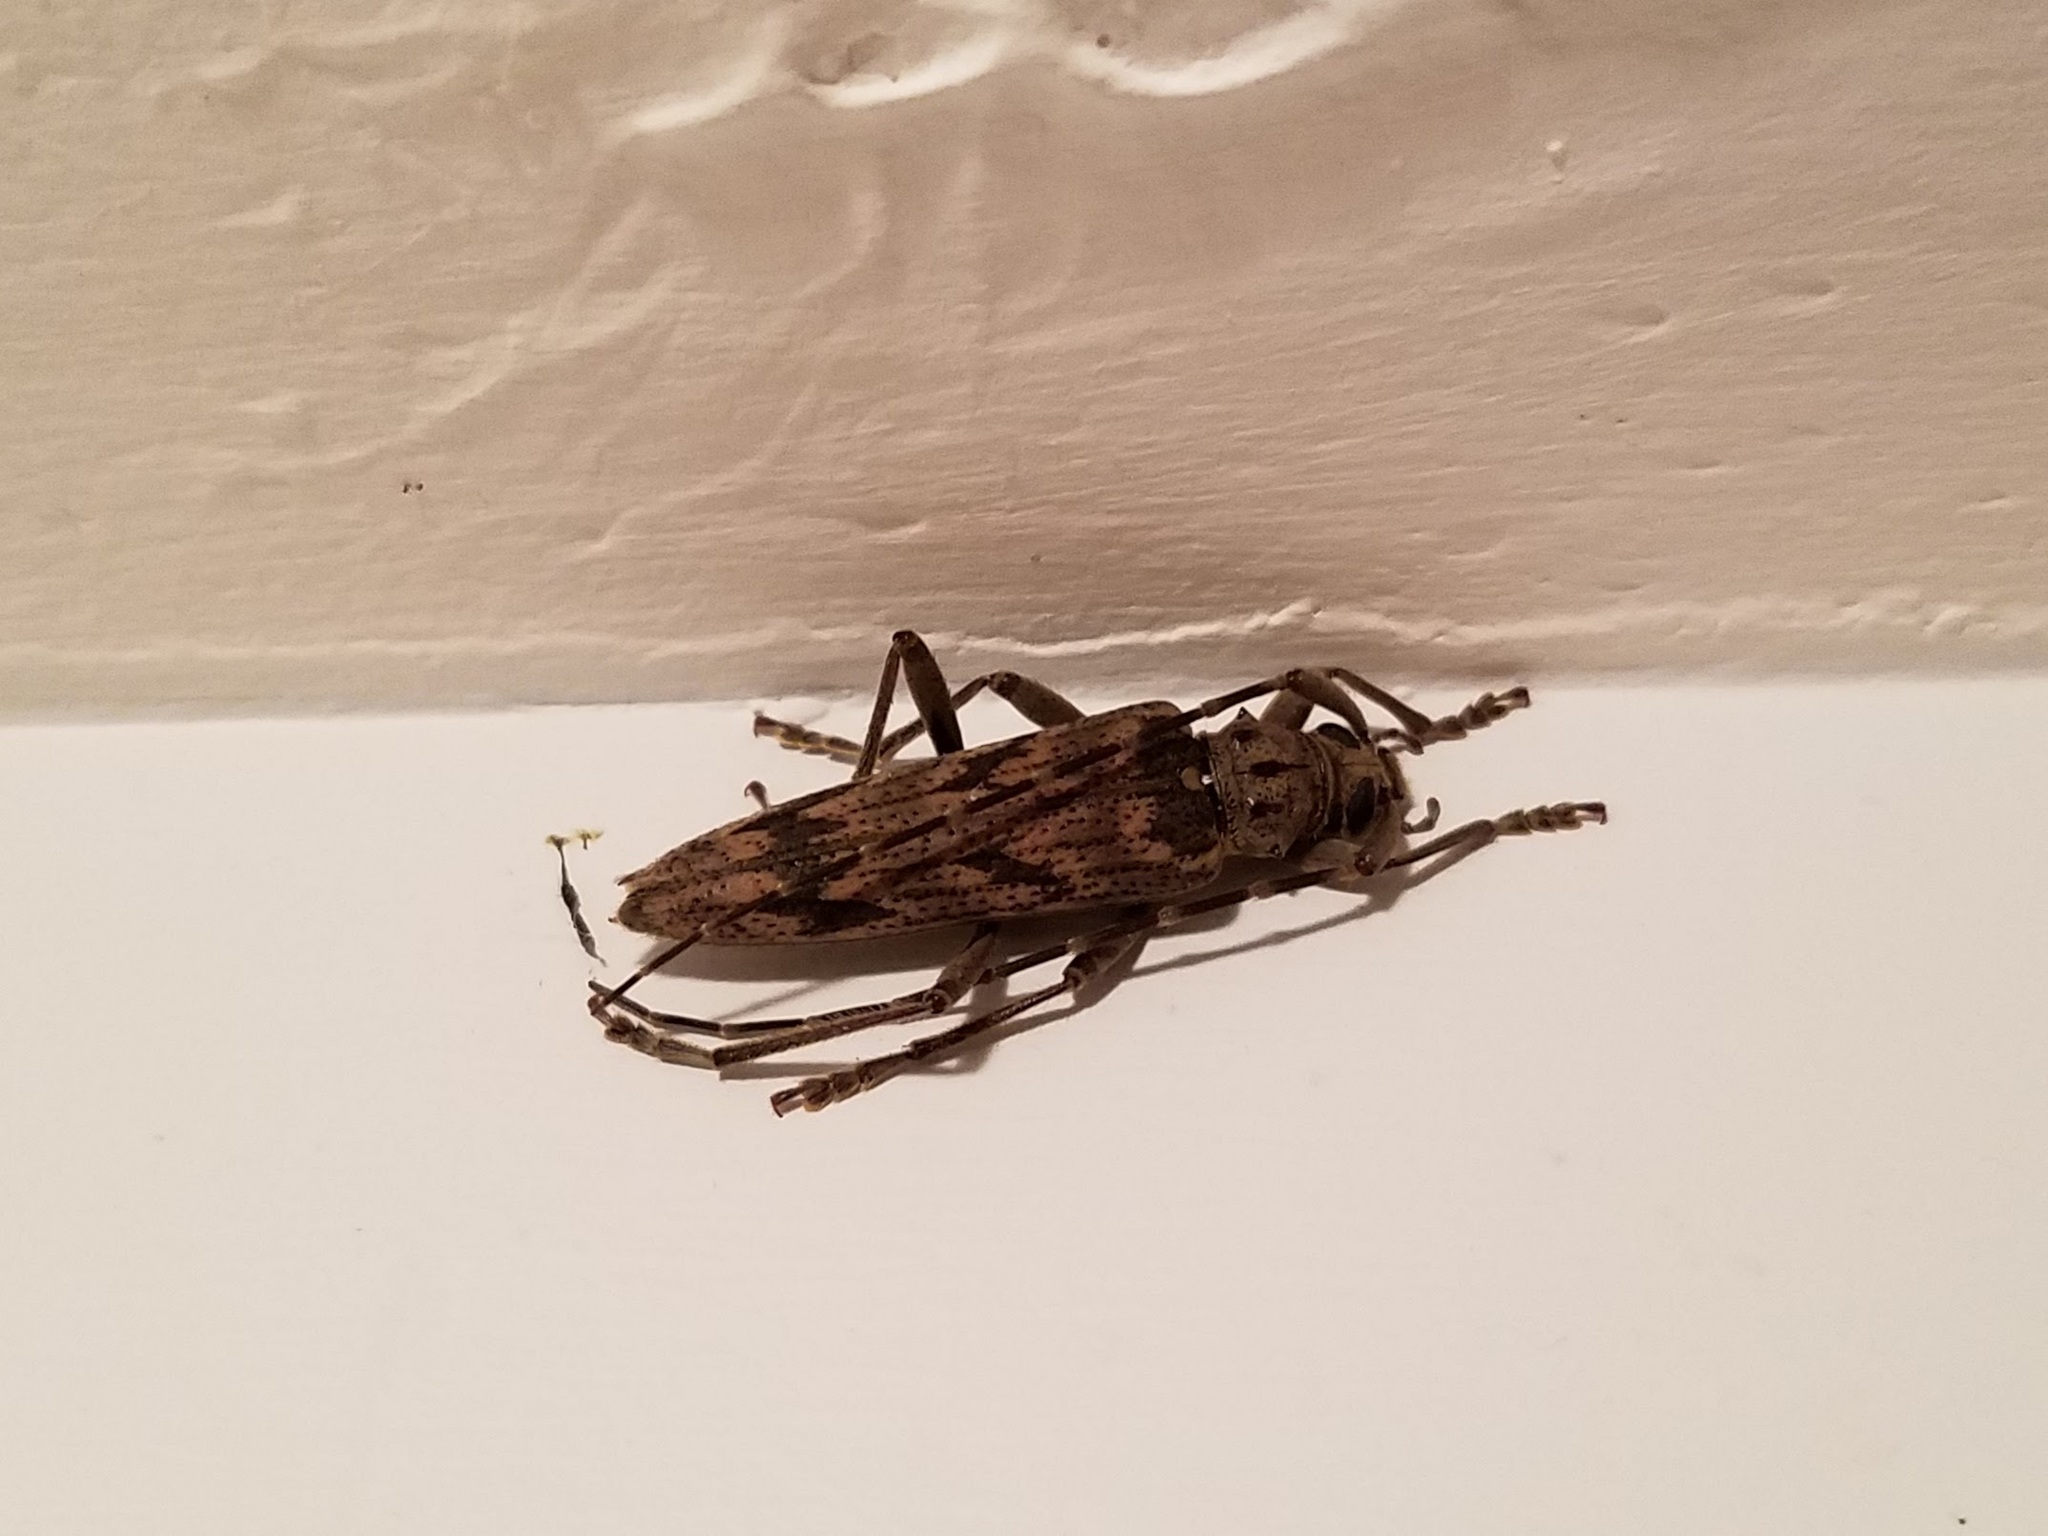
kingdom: Animalia
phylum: Arthropoda
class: Insecta
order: Coleoptera
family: Cerambycidae
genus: Elytrimitatrix
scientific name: Elytrimitatrix undata
